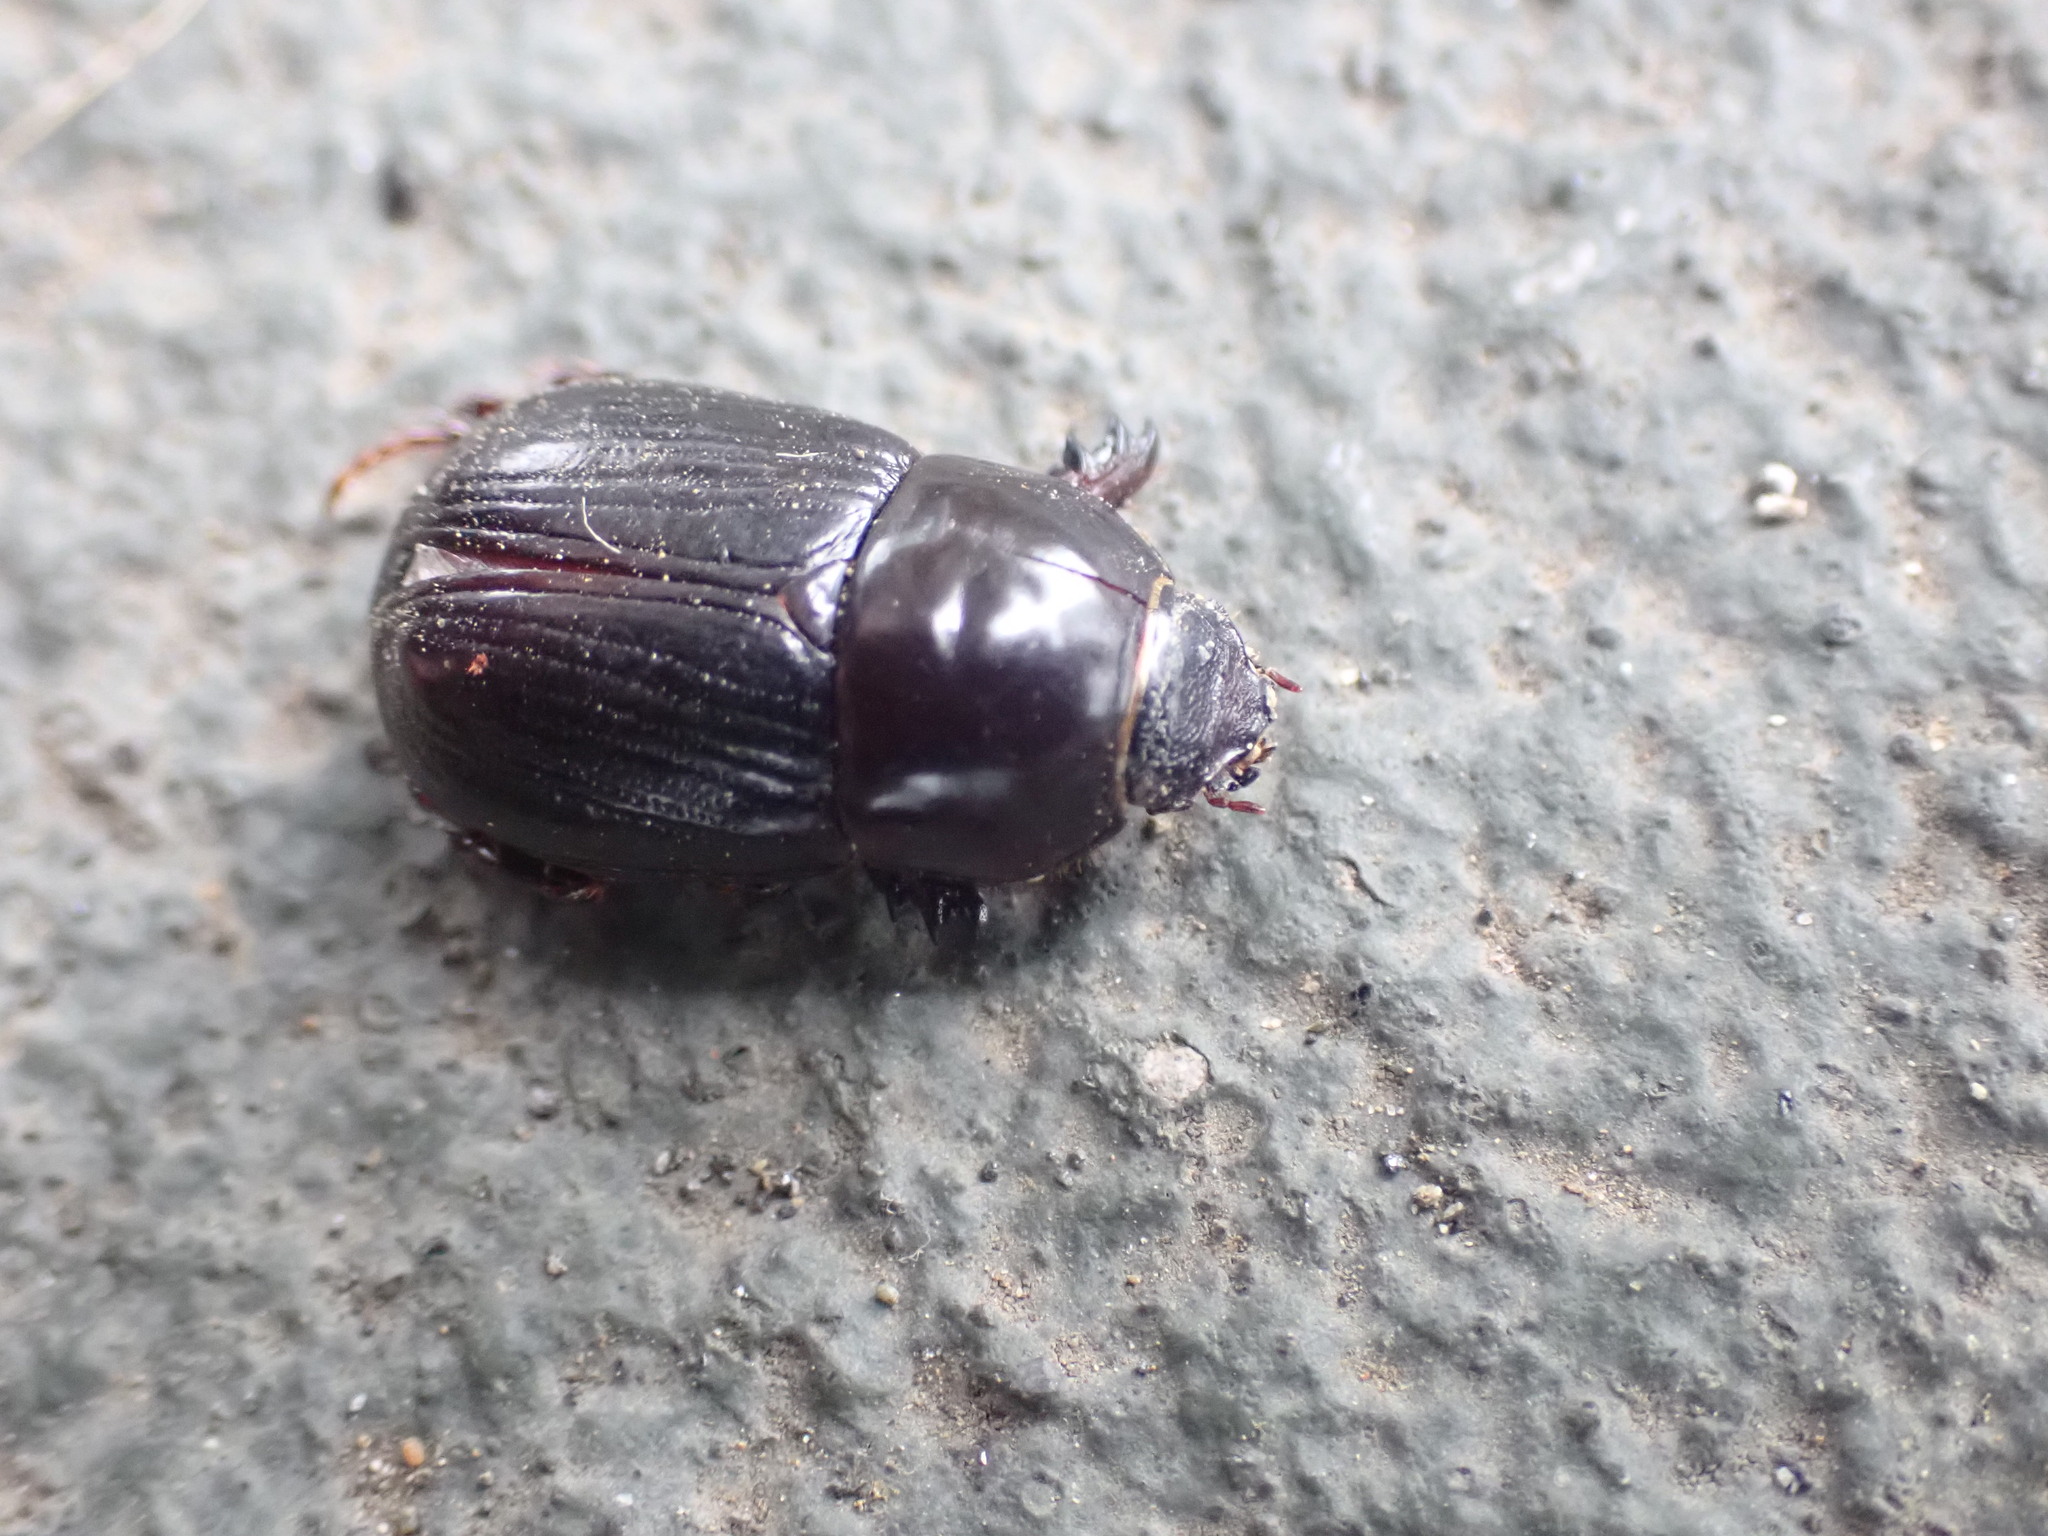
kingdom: Animalia
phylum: Arthropoda
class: Insecta
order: Coleoptera
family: Scarabaeidae
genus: Heteronychus
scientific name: Heteronychus arator
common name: African black beetle
